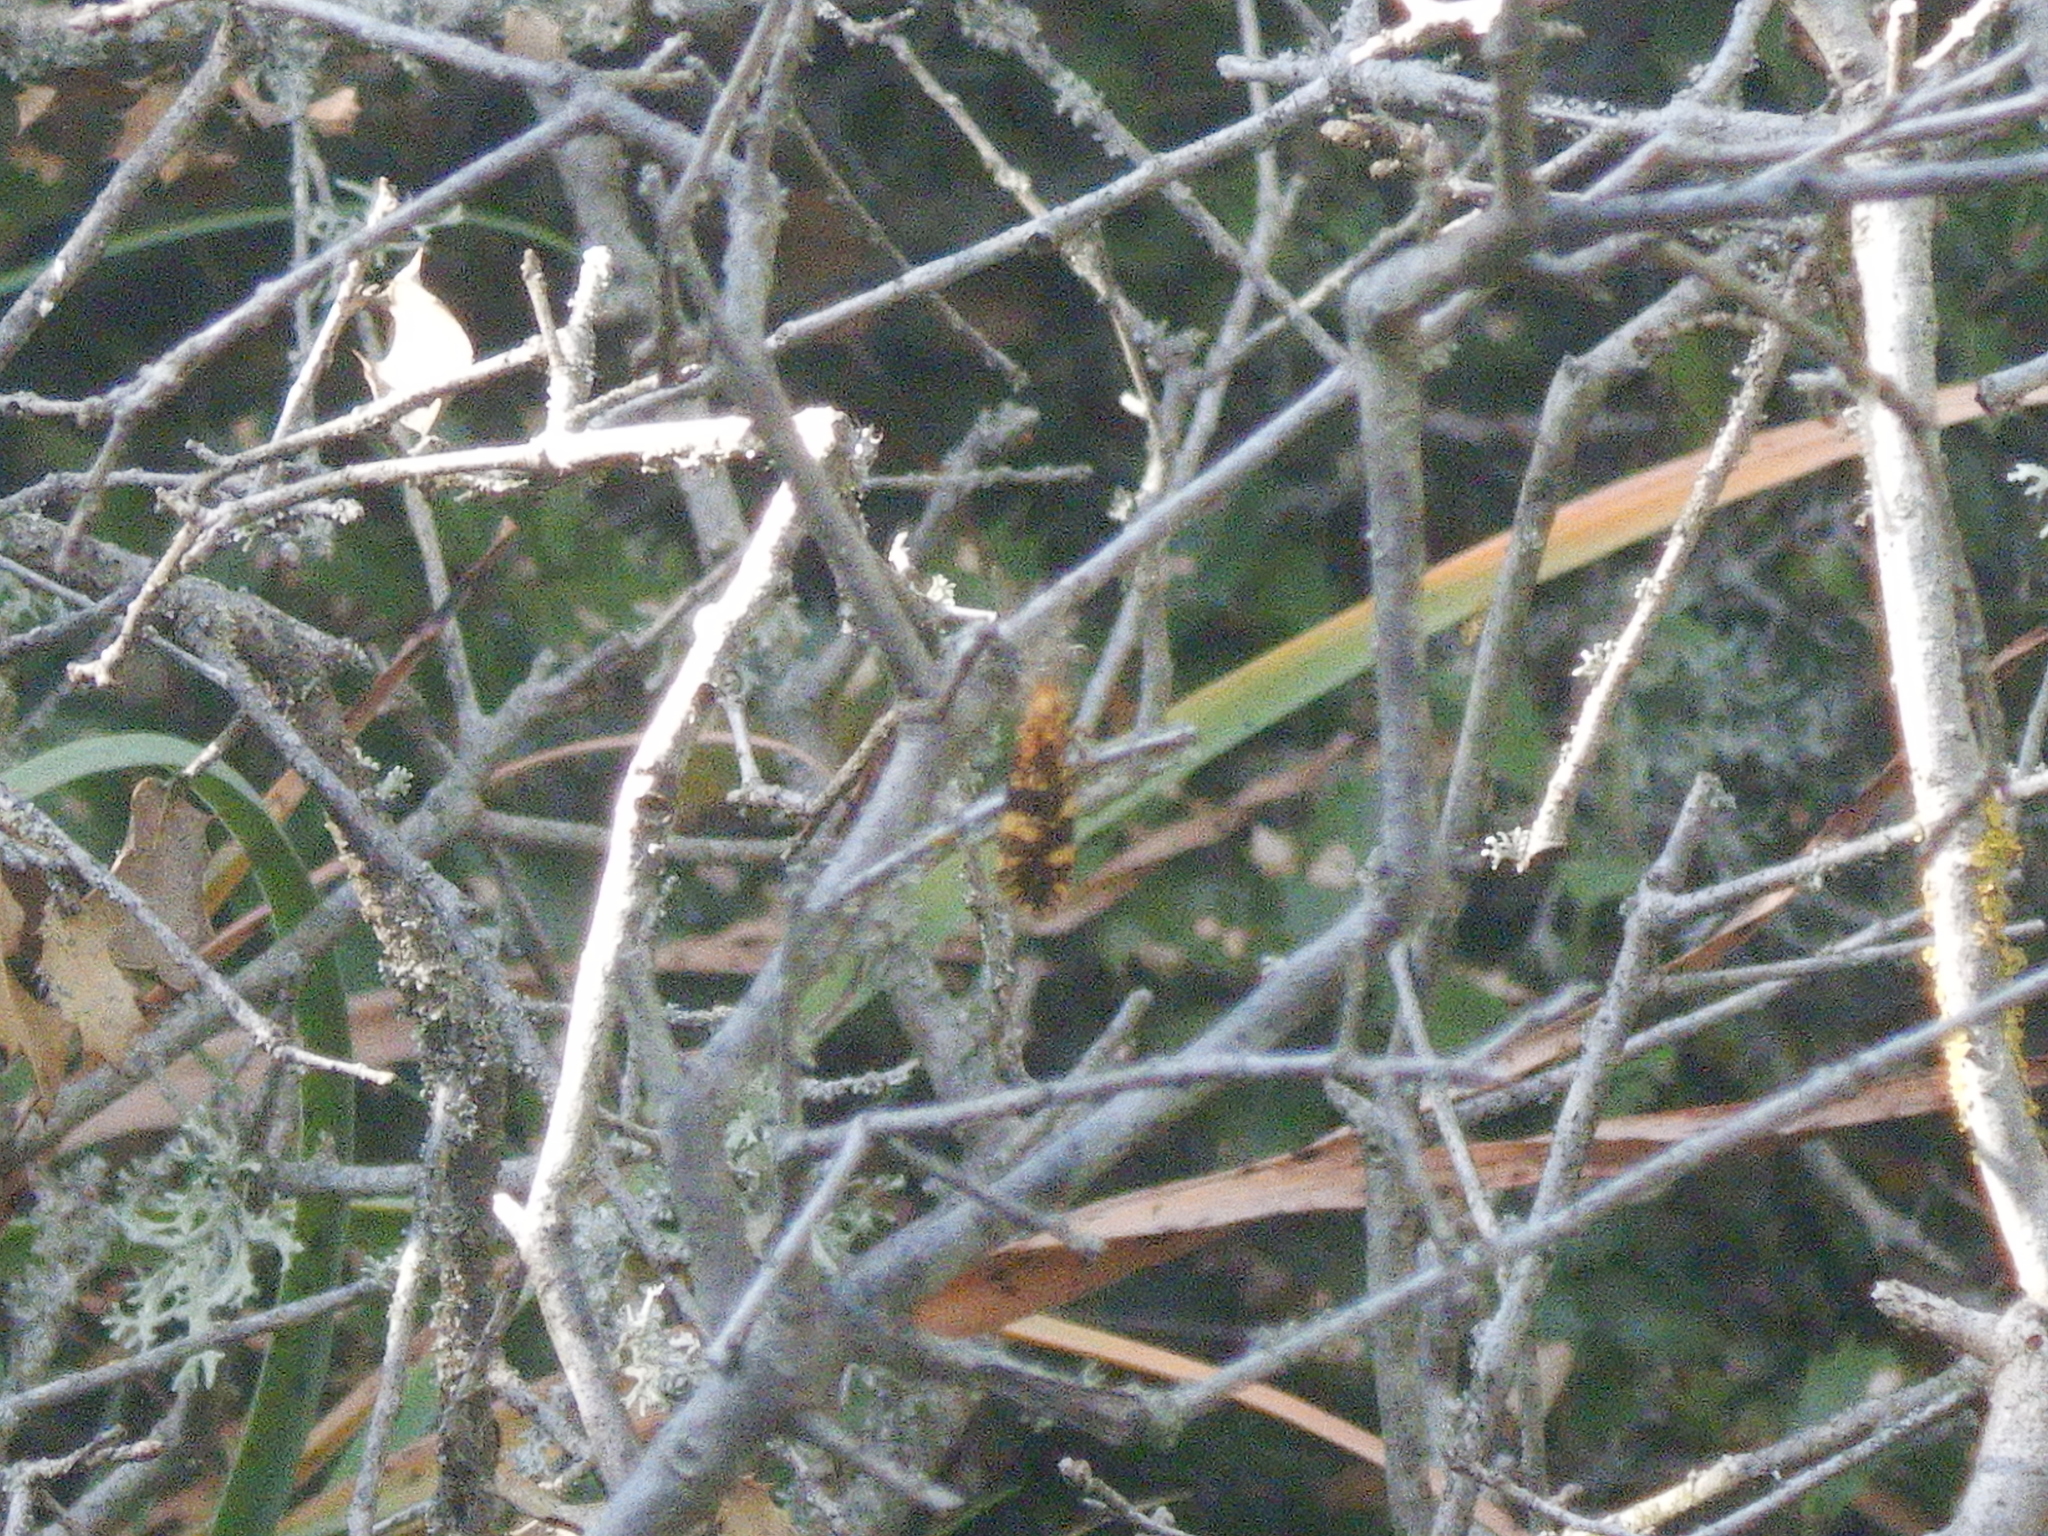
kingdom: Animalia
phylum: Arthropoda
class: Insecta
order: Lepidoptera
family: Tineidae
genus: Euplocamus
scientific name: Euplocamus ophisa
